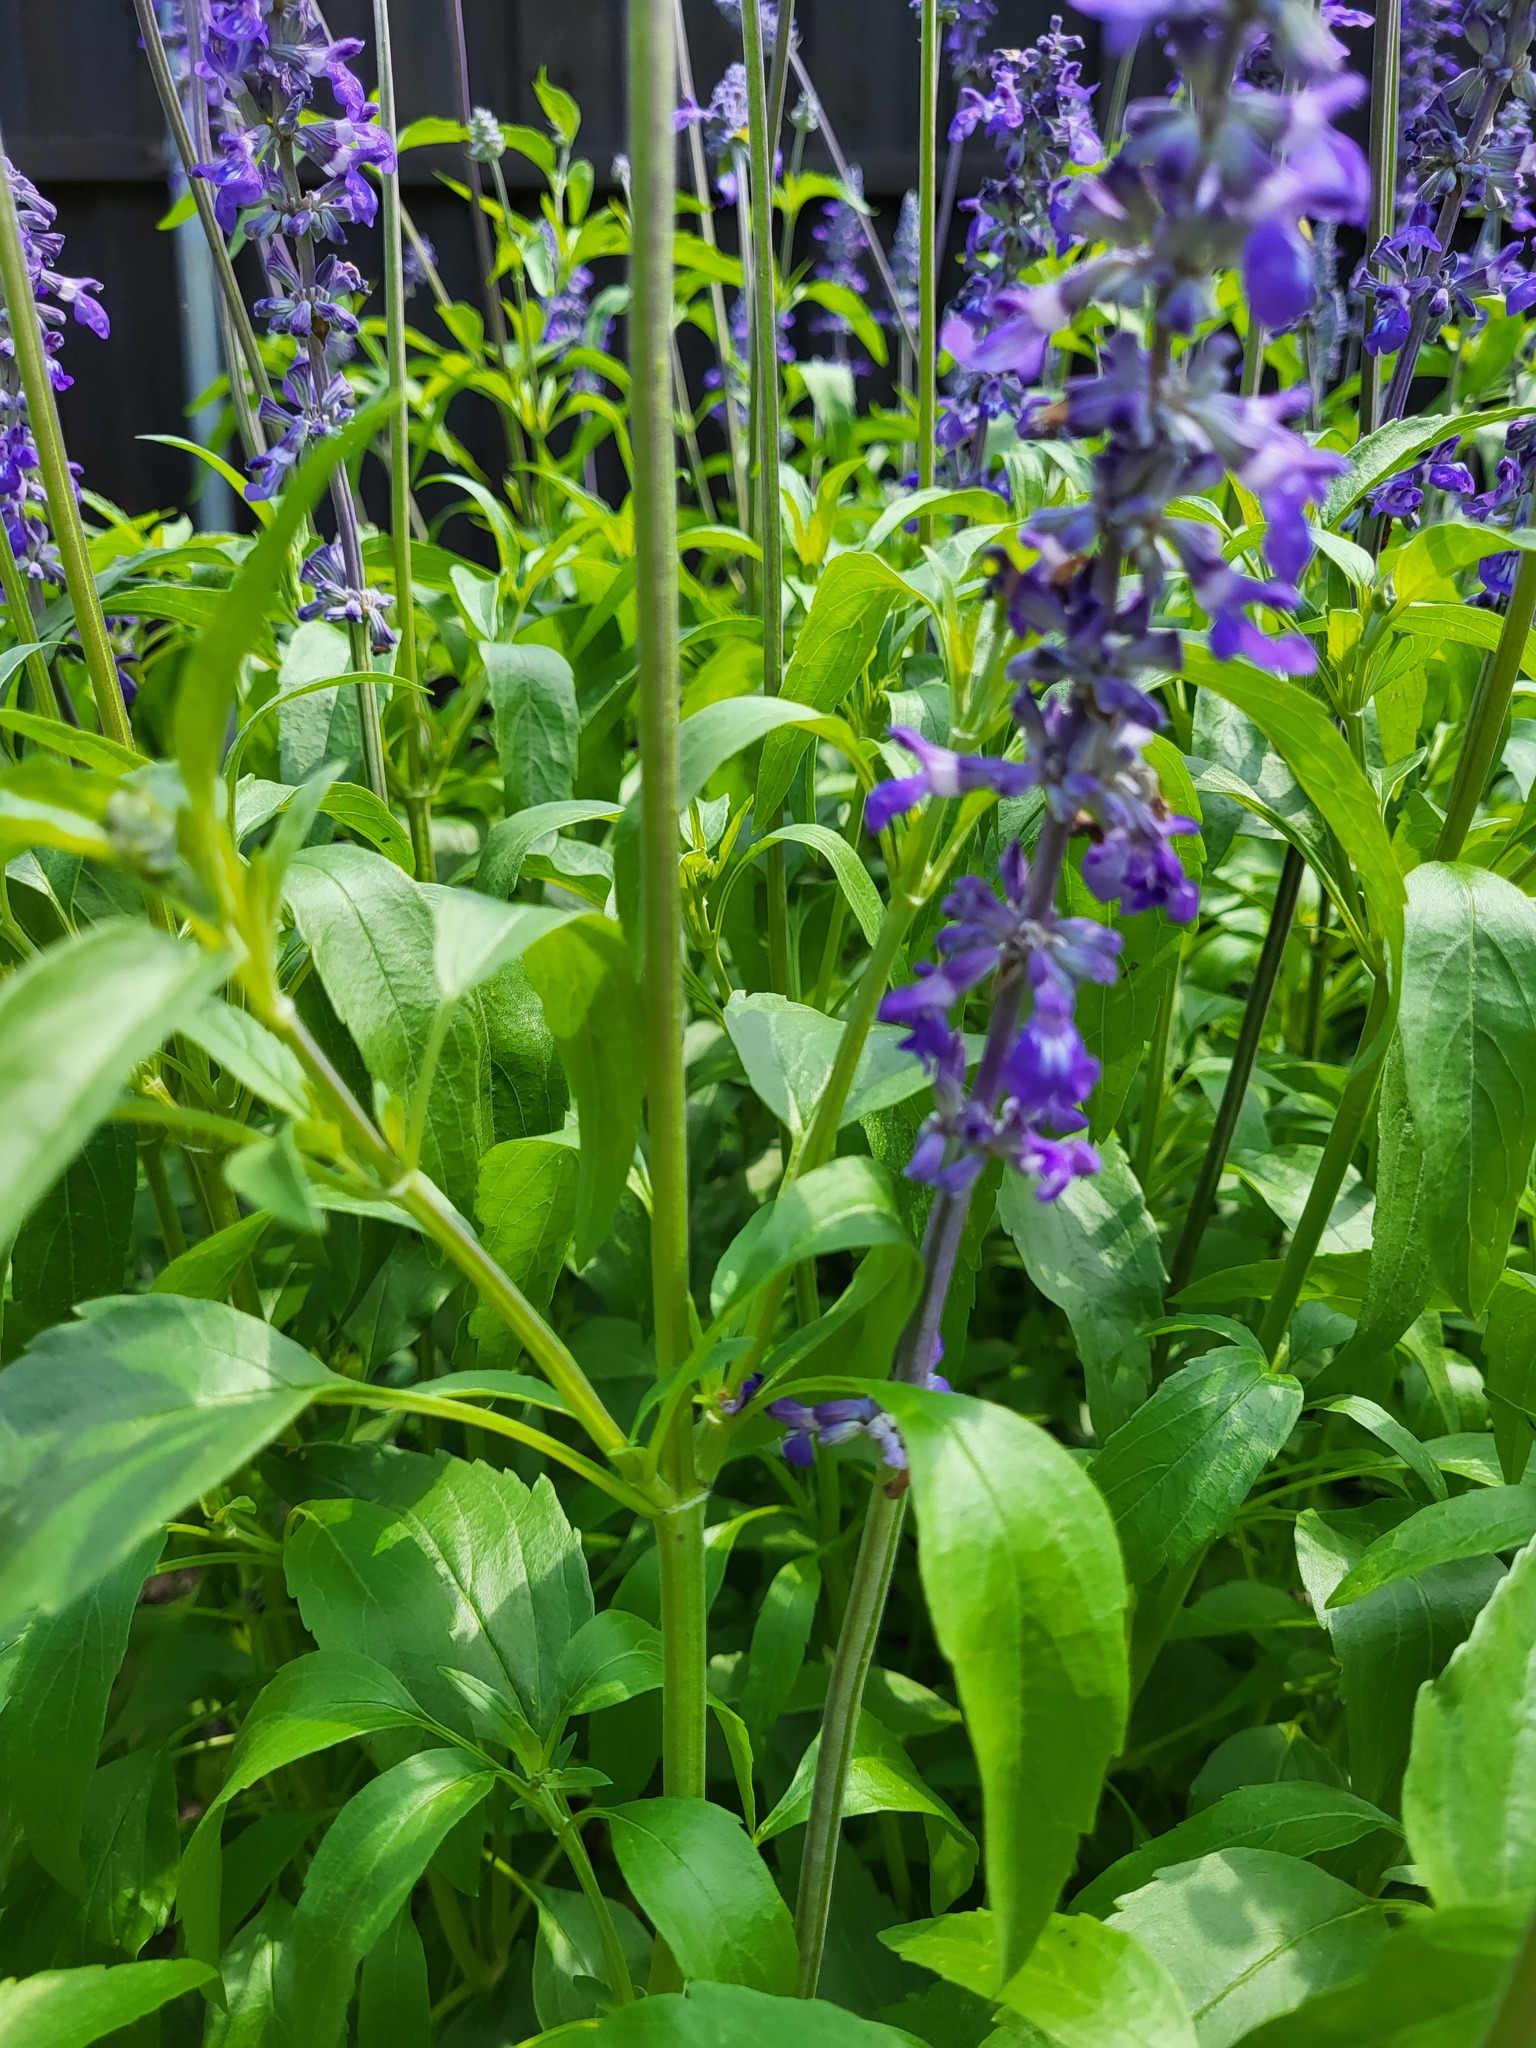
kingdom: Plantae
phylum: Tracheophyta
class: Magnoliopsida
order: Lamiales
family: Lamiaceae
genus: Salvia
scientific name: Salvia farinacea
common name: Mealy sage
